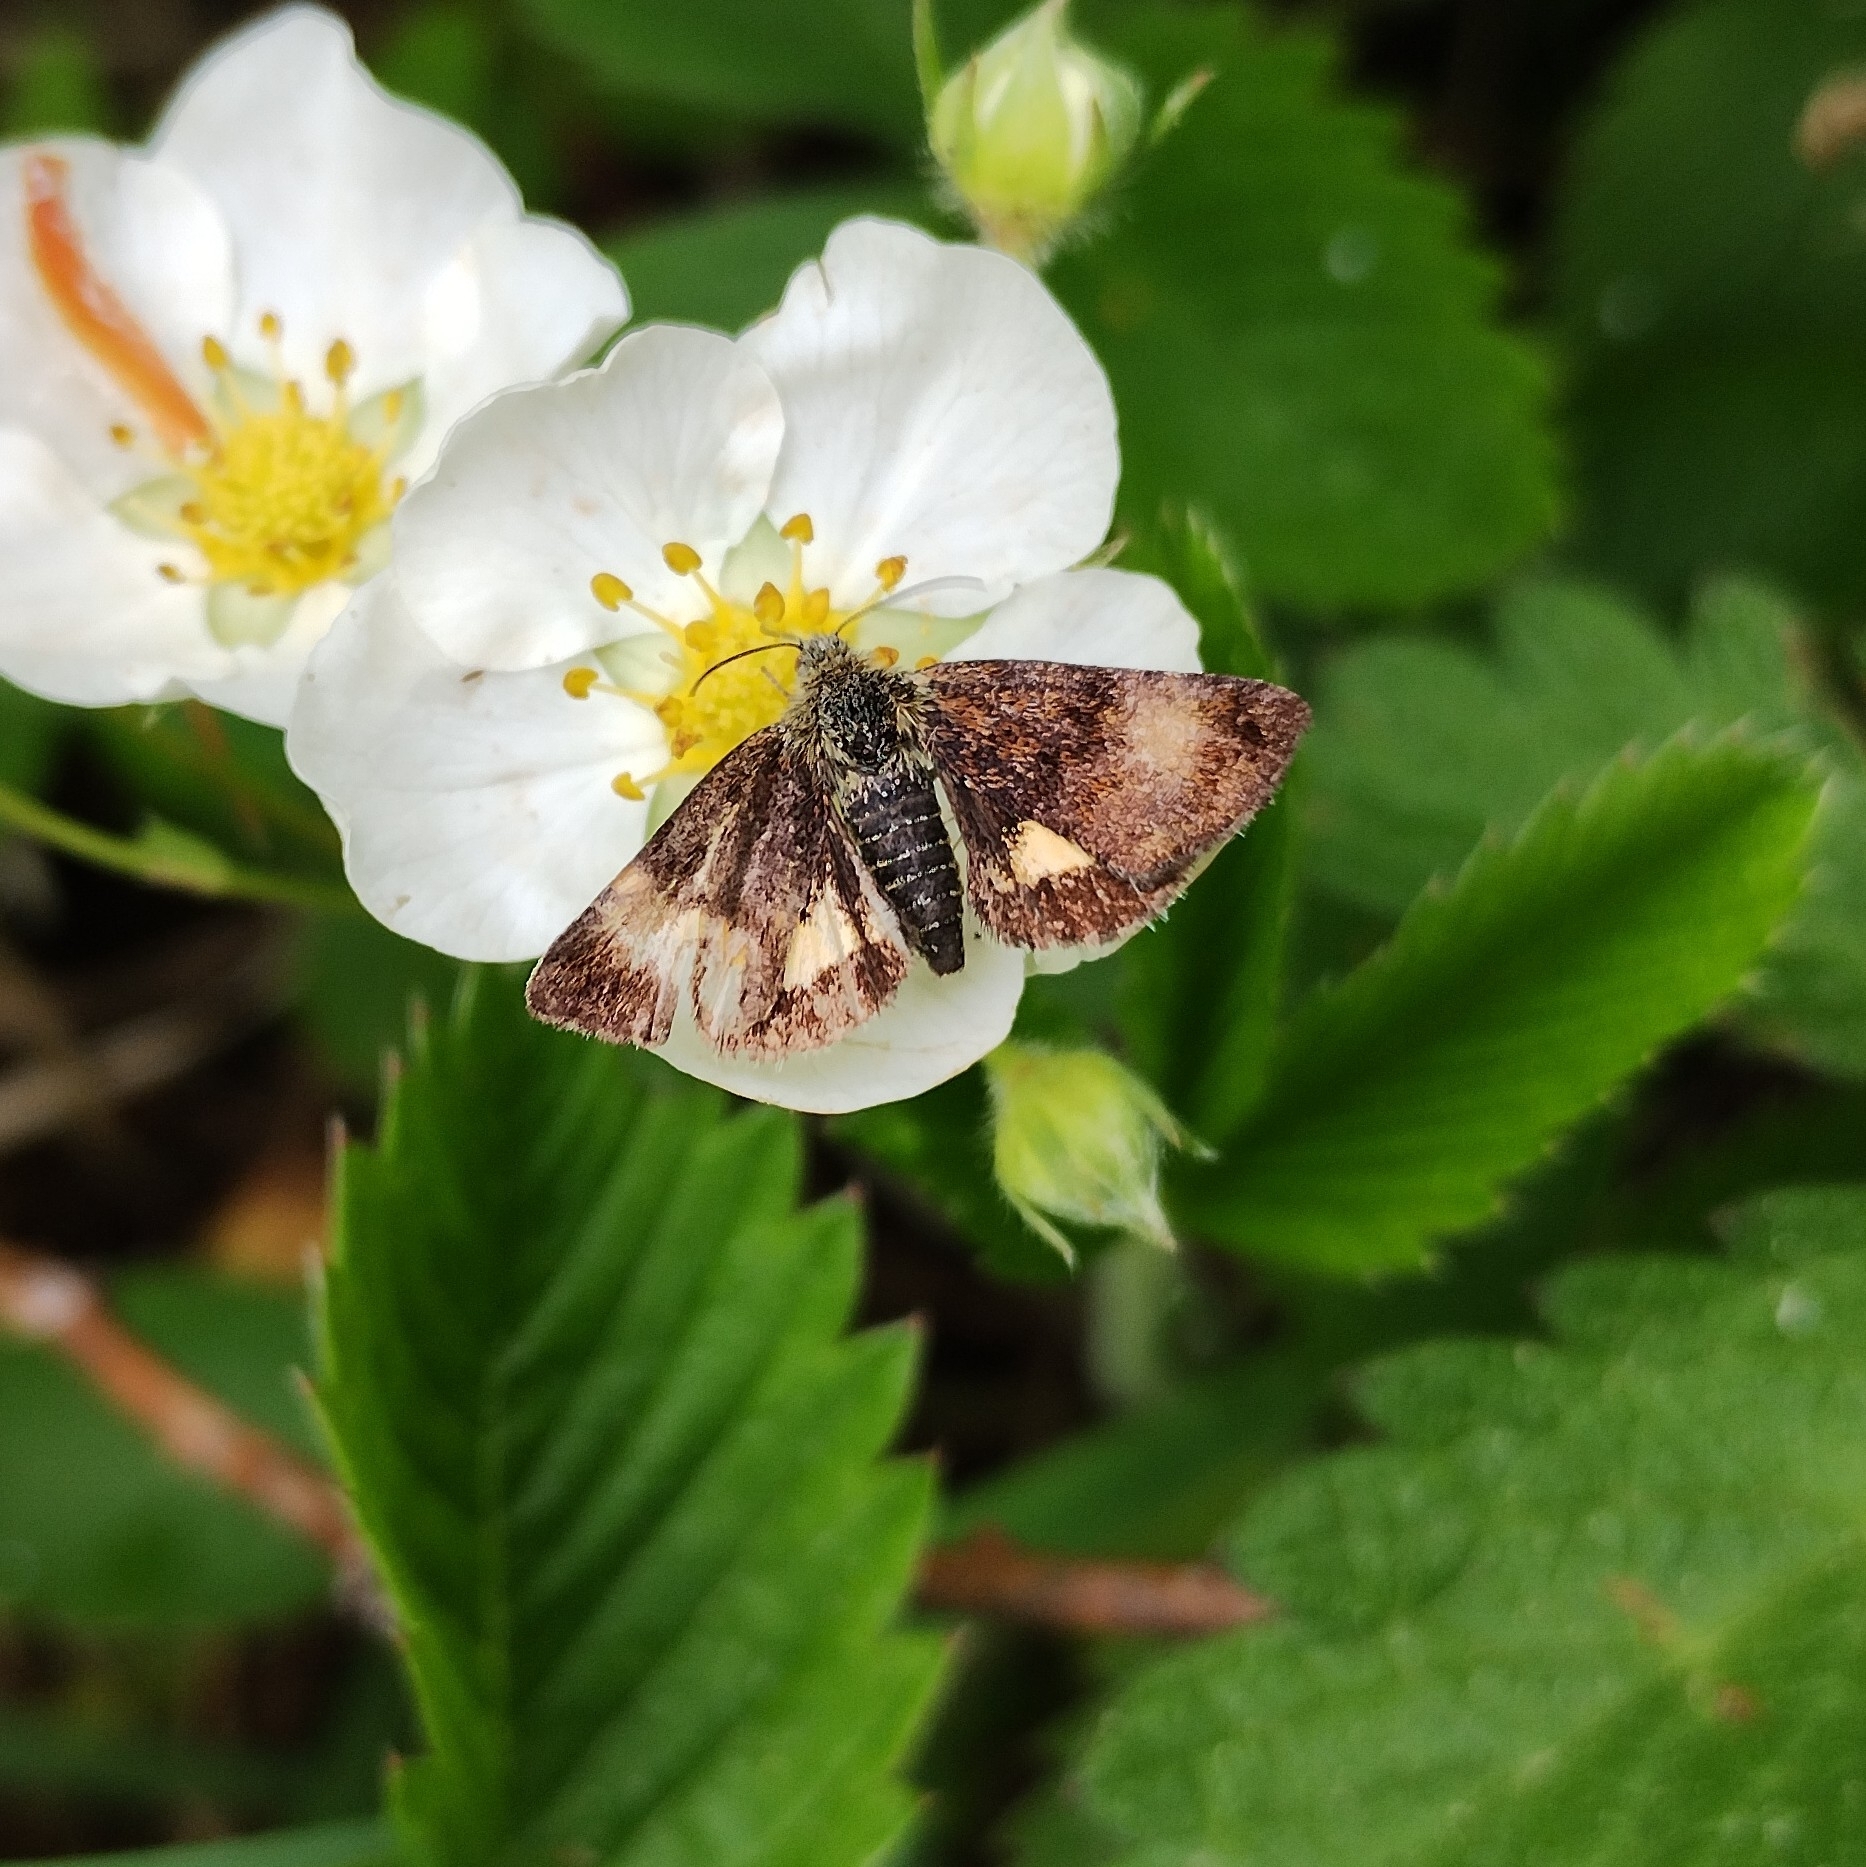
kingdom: Animalia
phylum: Arthropoda
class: Insecta
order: Lepidoptera
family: Noctuidae
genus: Panemeria
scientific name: Panemeria tenebrata
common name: Small yellow underwing
